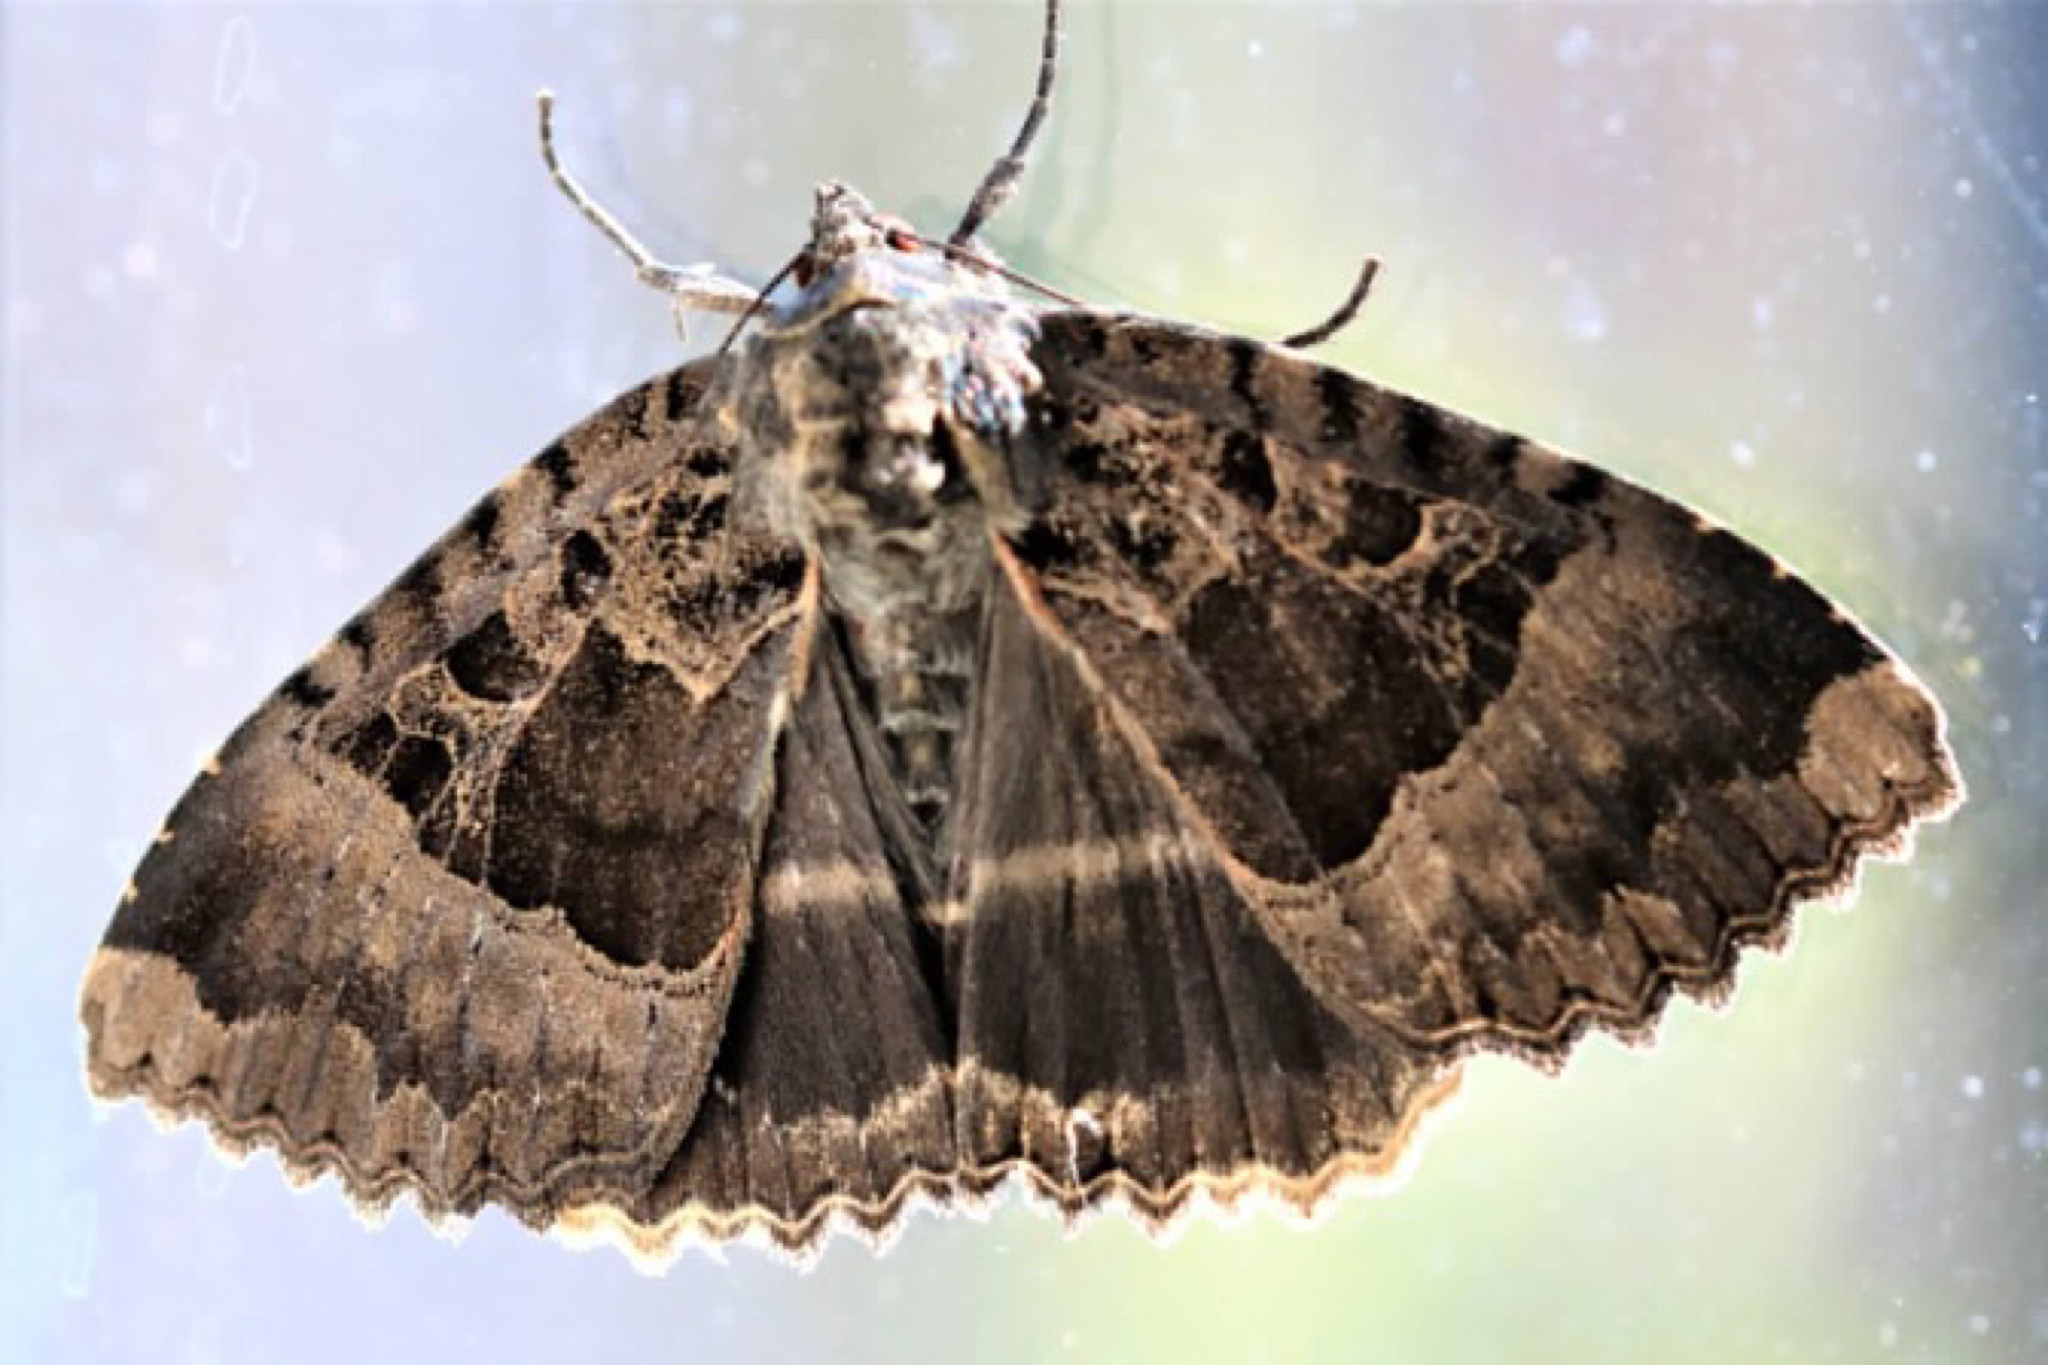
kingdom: Animalia
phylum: Arthropoda
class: Insecta
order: Lepidoptera
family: Noctuidae
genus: Mormo
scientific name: Mormo maura
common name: Old lady
